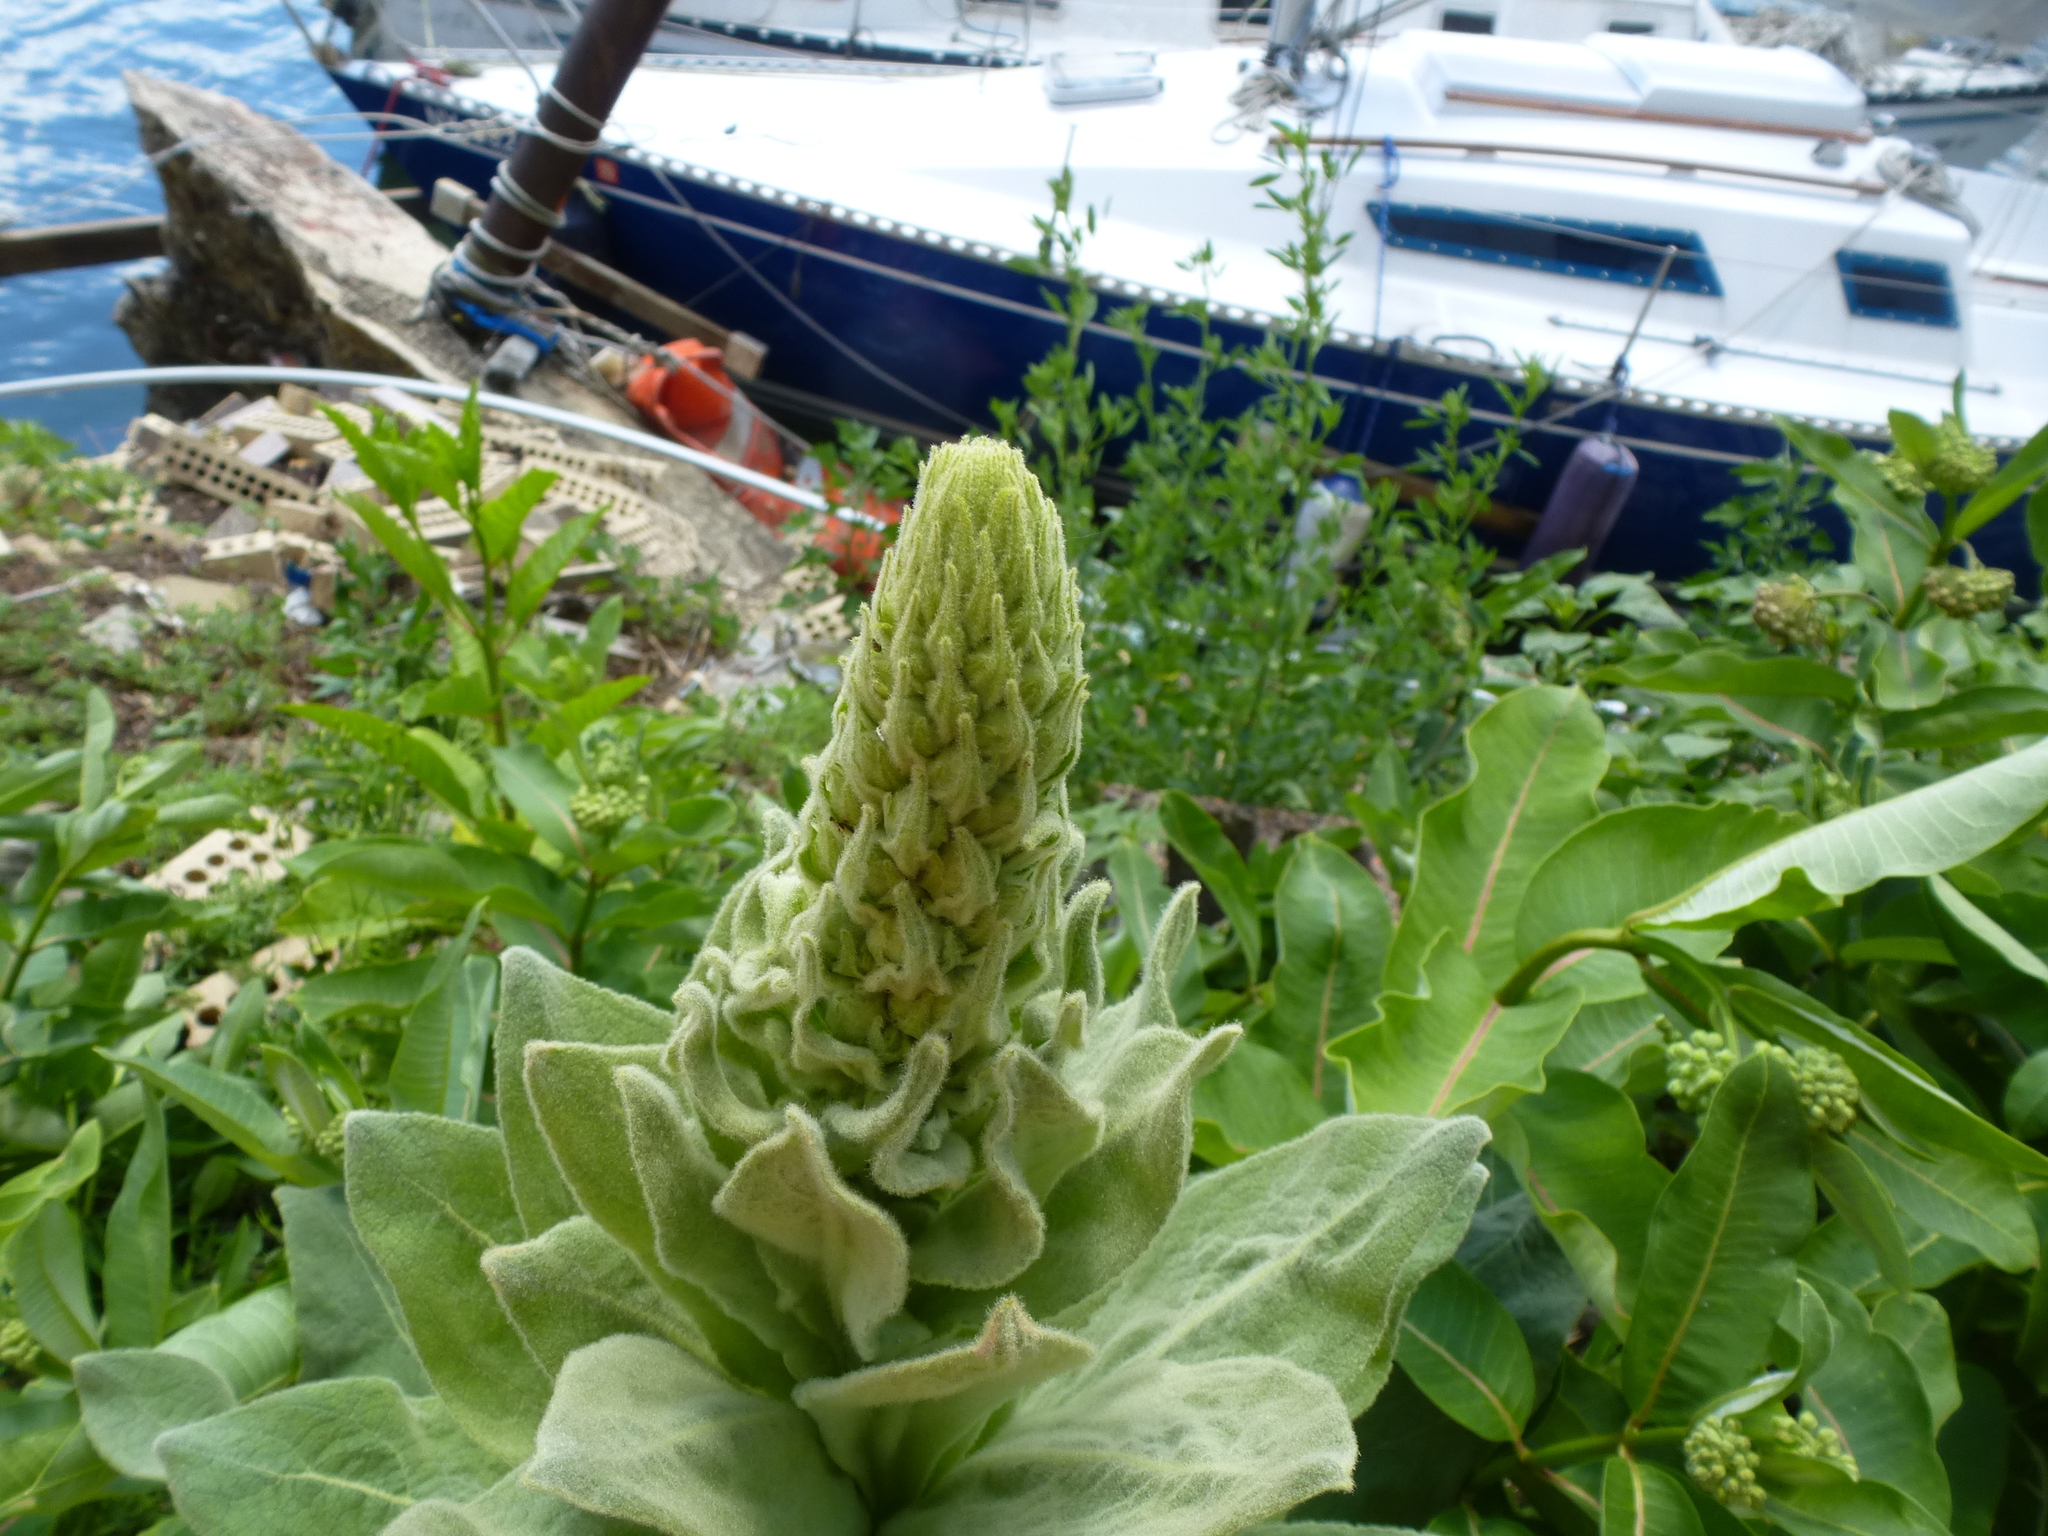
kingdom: Plantae
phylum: Tracheophyta
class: Magnoliopsida
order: Lamiales
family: Scrophulariaceae
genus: Verbascum
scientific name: Verbascum thapsus
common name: Common mullein
